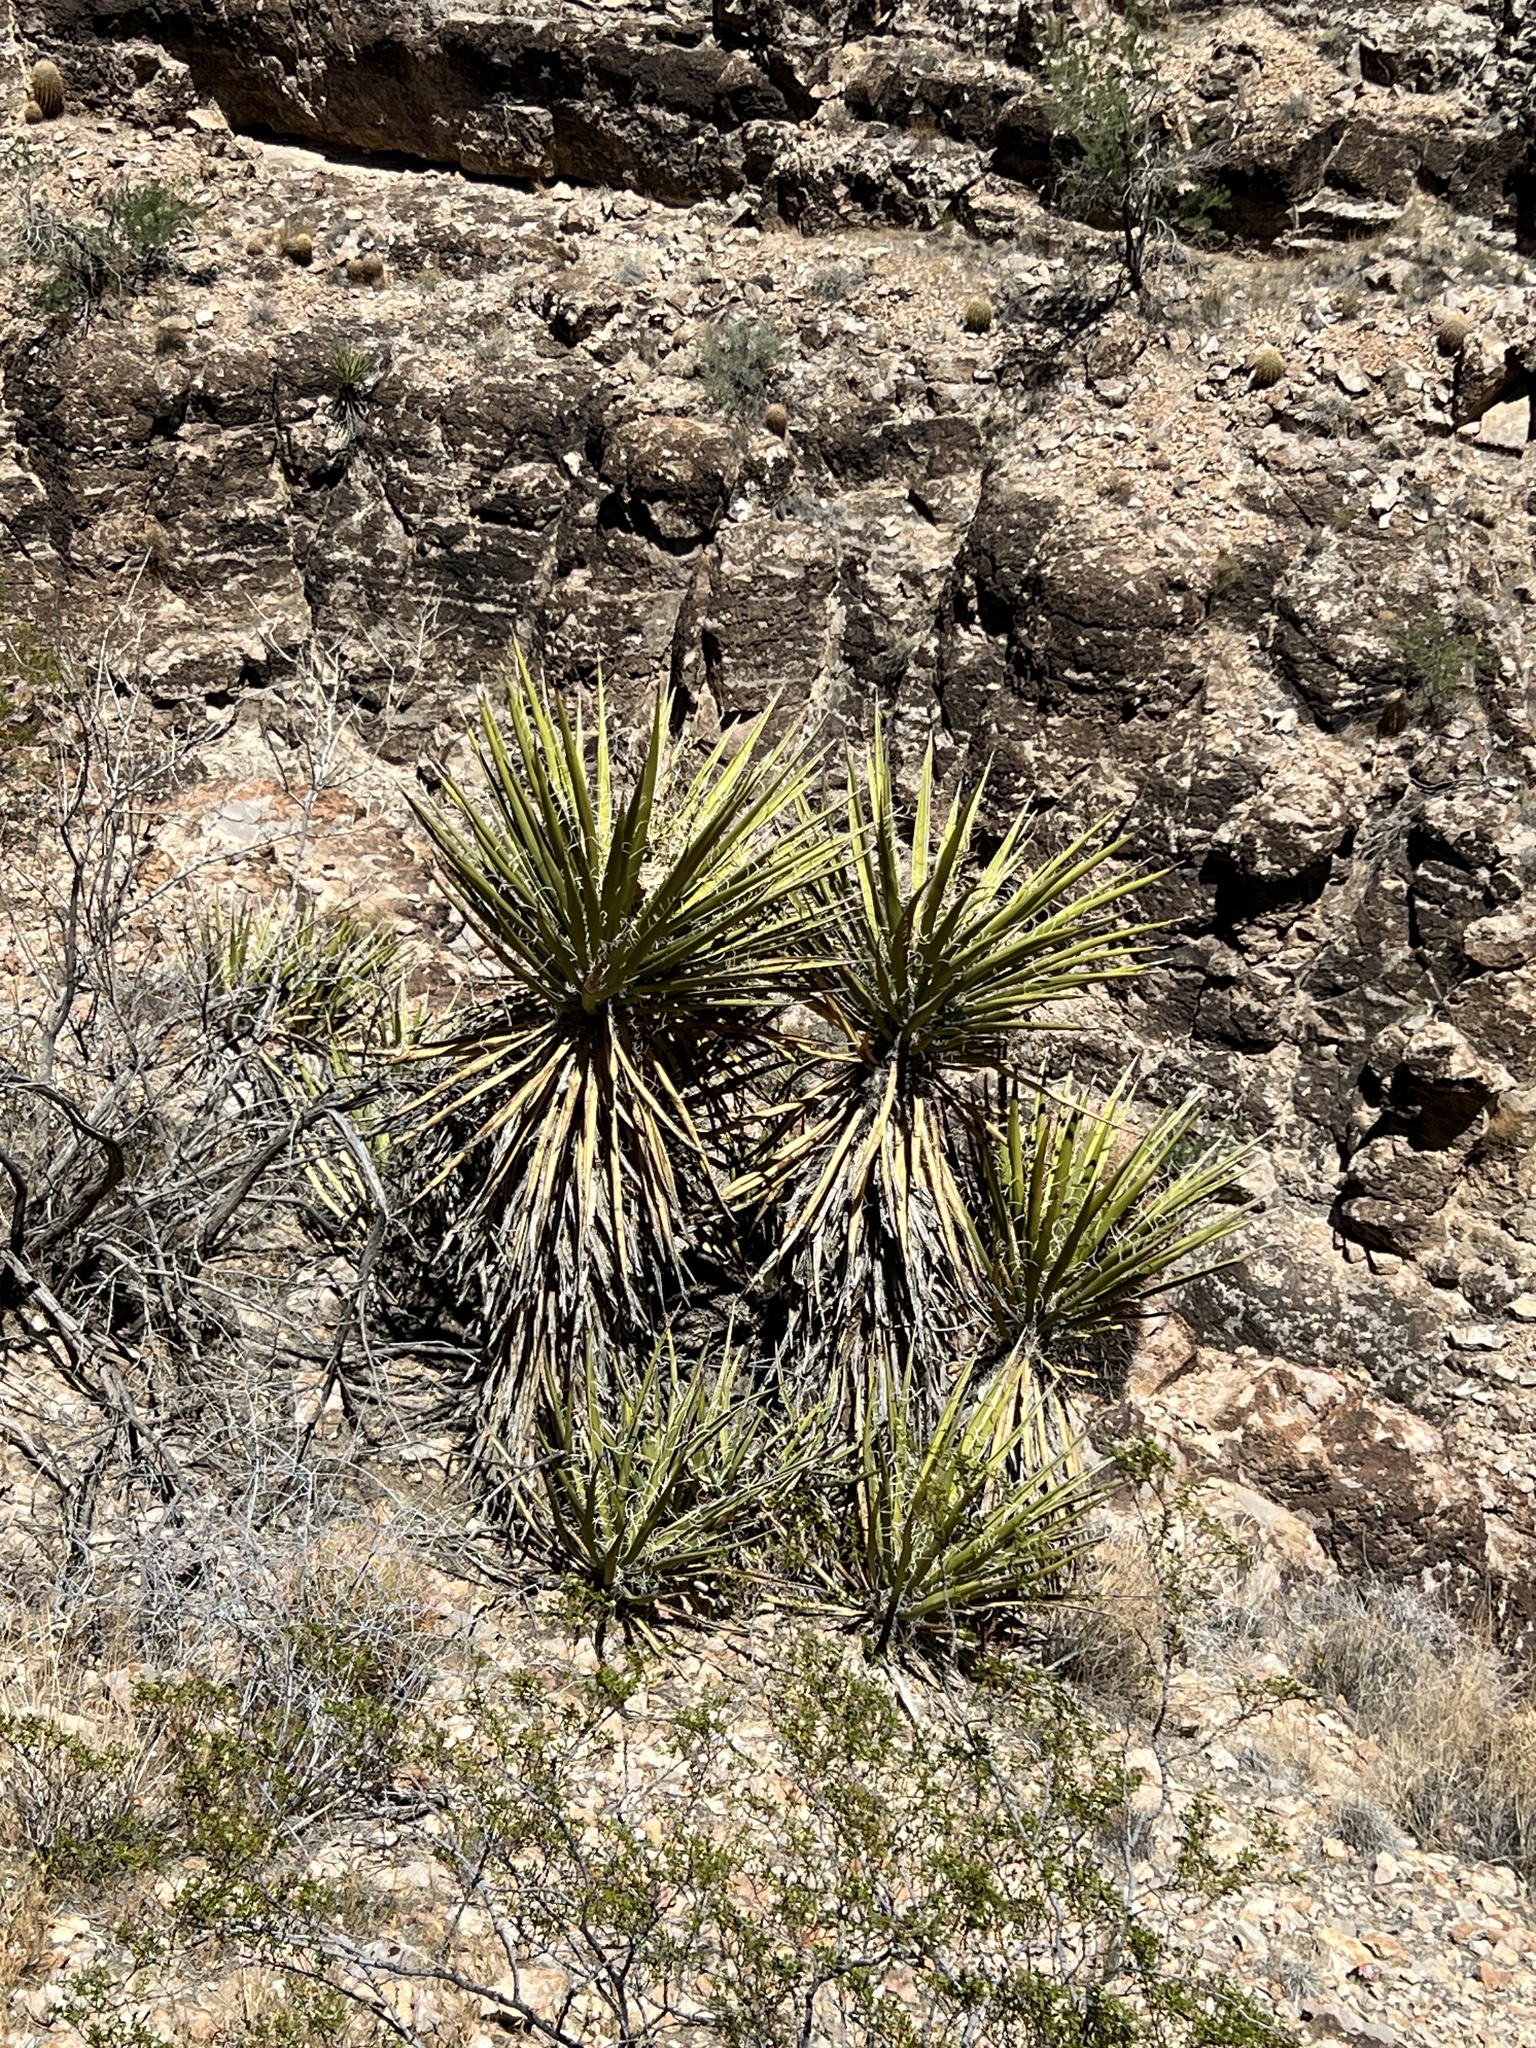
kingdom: Plantae
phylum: Tracheophyta
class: Liliopsida
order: Asparagales
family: Asparagaceae
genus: Yucca
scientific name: Yucca schidigera
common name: Mojave yucca
